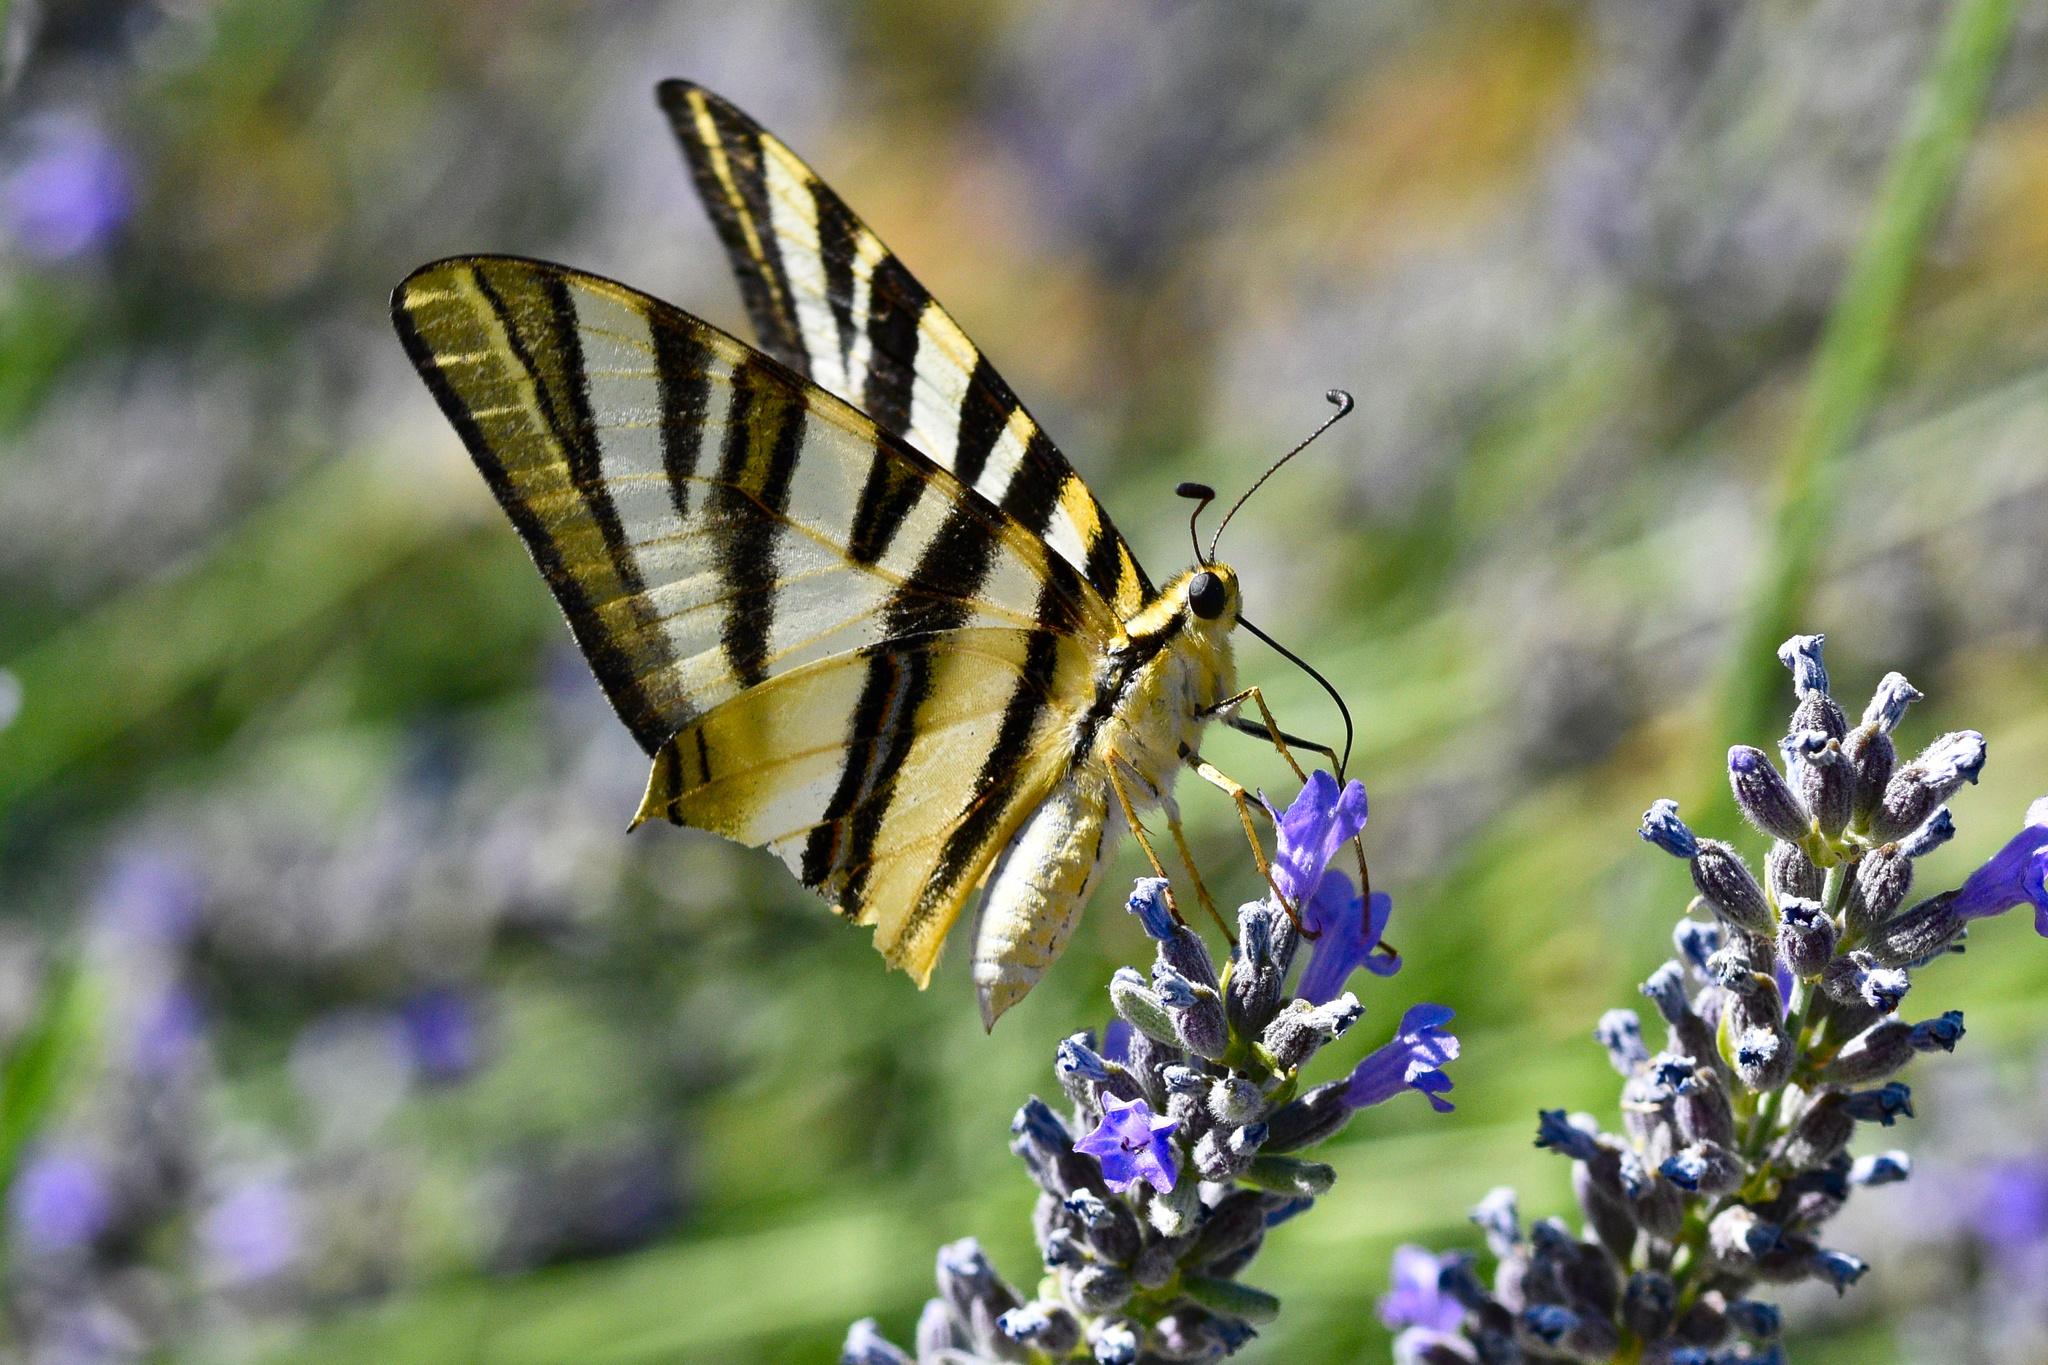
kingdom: Animalia
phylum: Arthropoda
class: Insecta
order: Lepidoptera
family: Papilionidae
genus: Iphiclides
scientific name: Iphiclides feisthamelii
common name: Iberian scarce swallowtail
